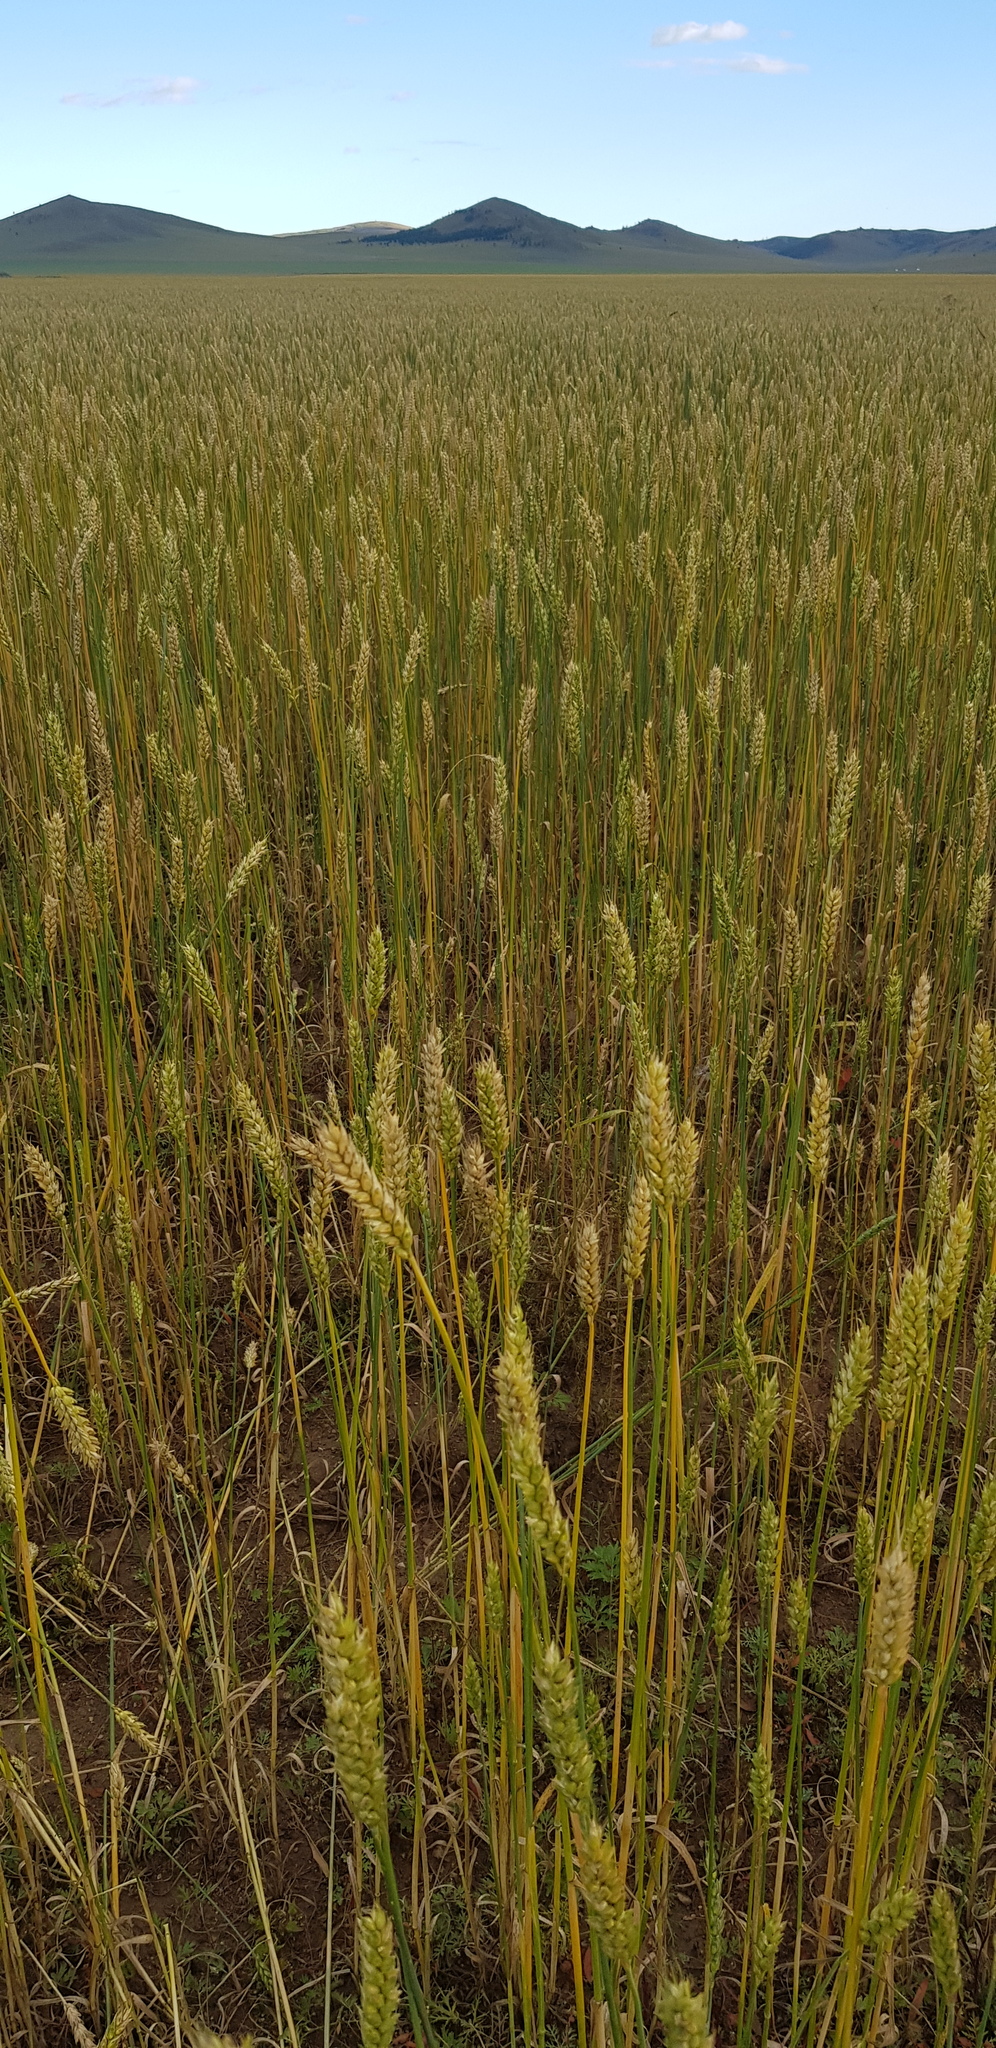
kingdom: Plantae
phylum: Tracheophyta
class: Liliopsida
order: Poales
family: Poaceae
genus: Triticum
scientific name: Triticum aestivum
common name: Common wheat
